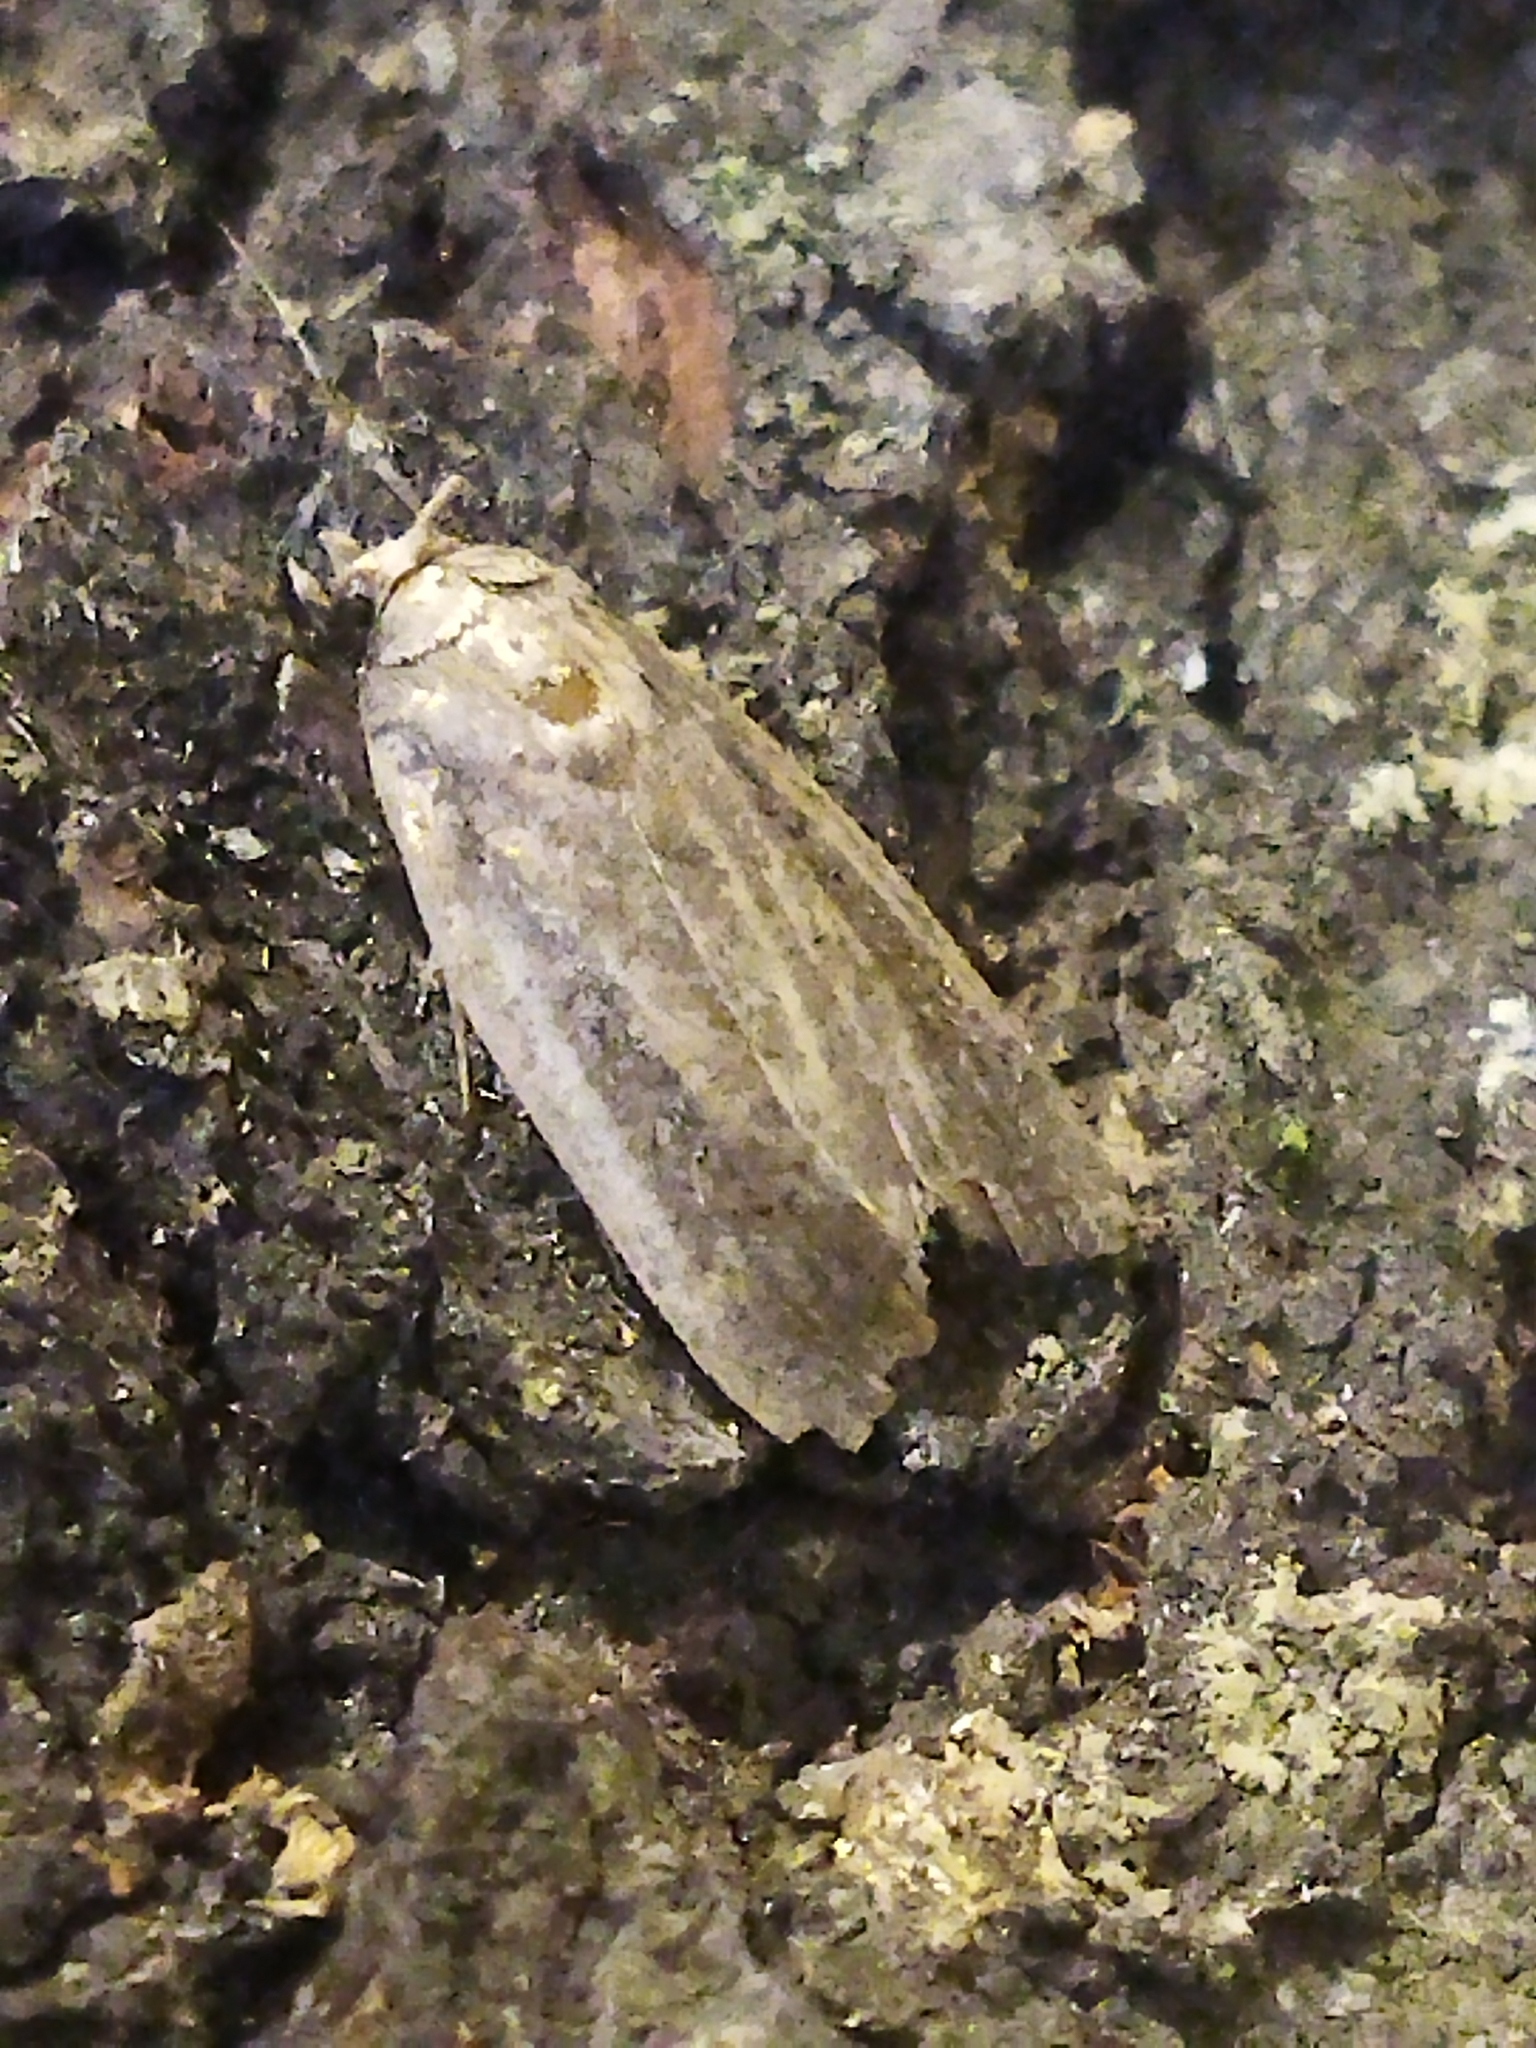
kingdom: Animalia
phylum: Arthropoda
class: Insecta
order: Lepidoptera
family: Noctuidae
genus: Athetis
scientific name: Athetis
